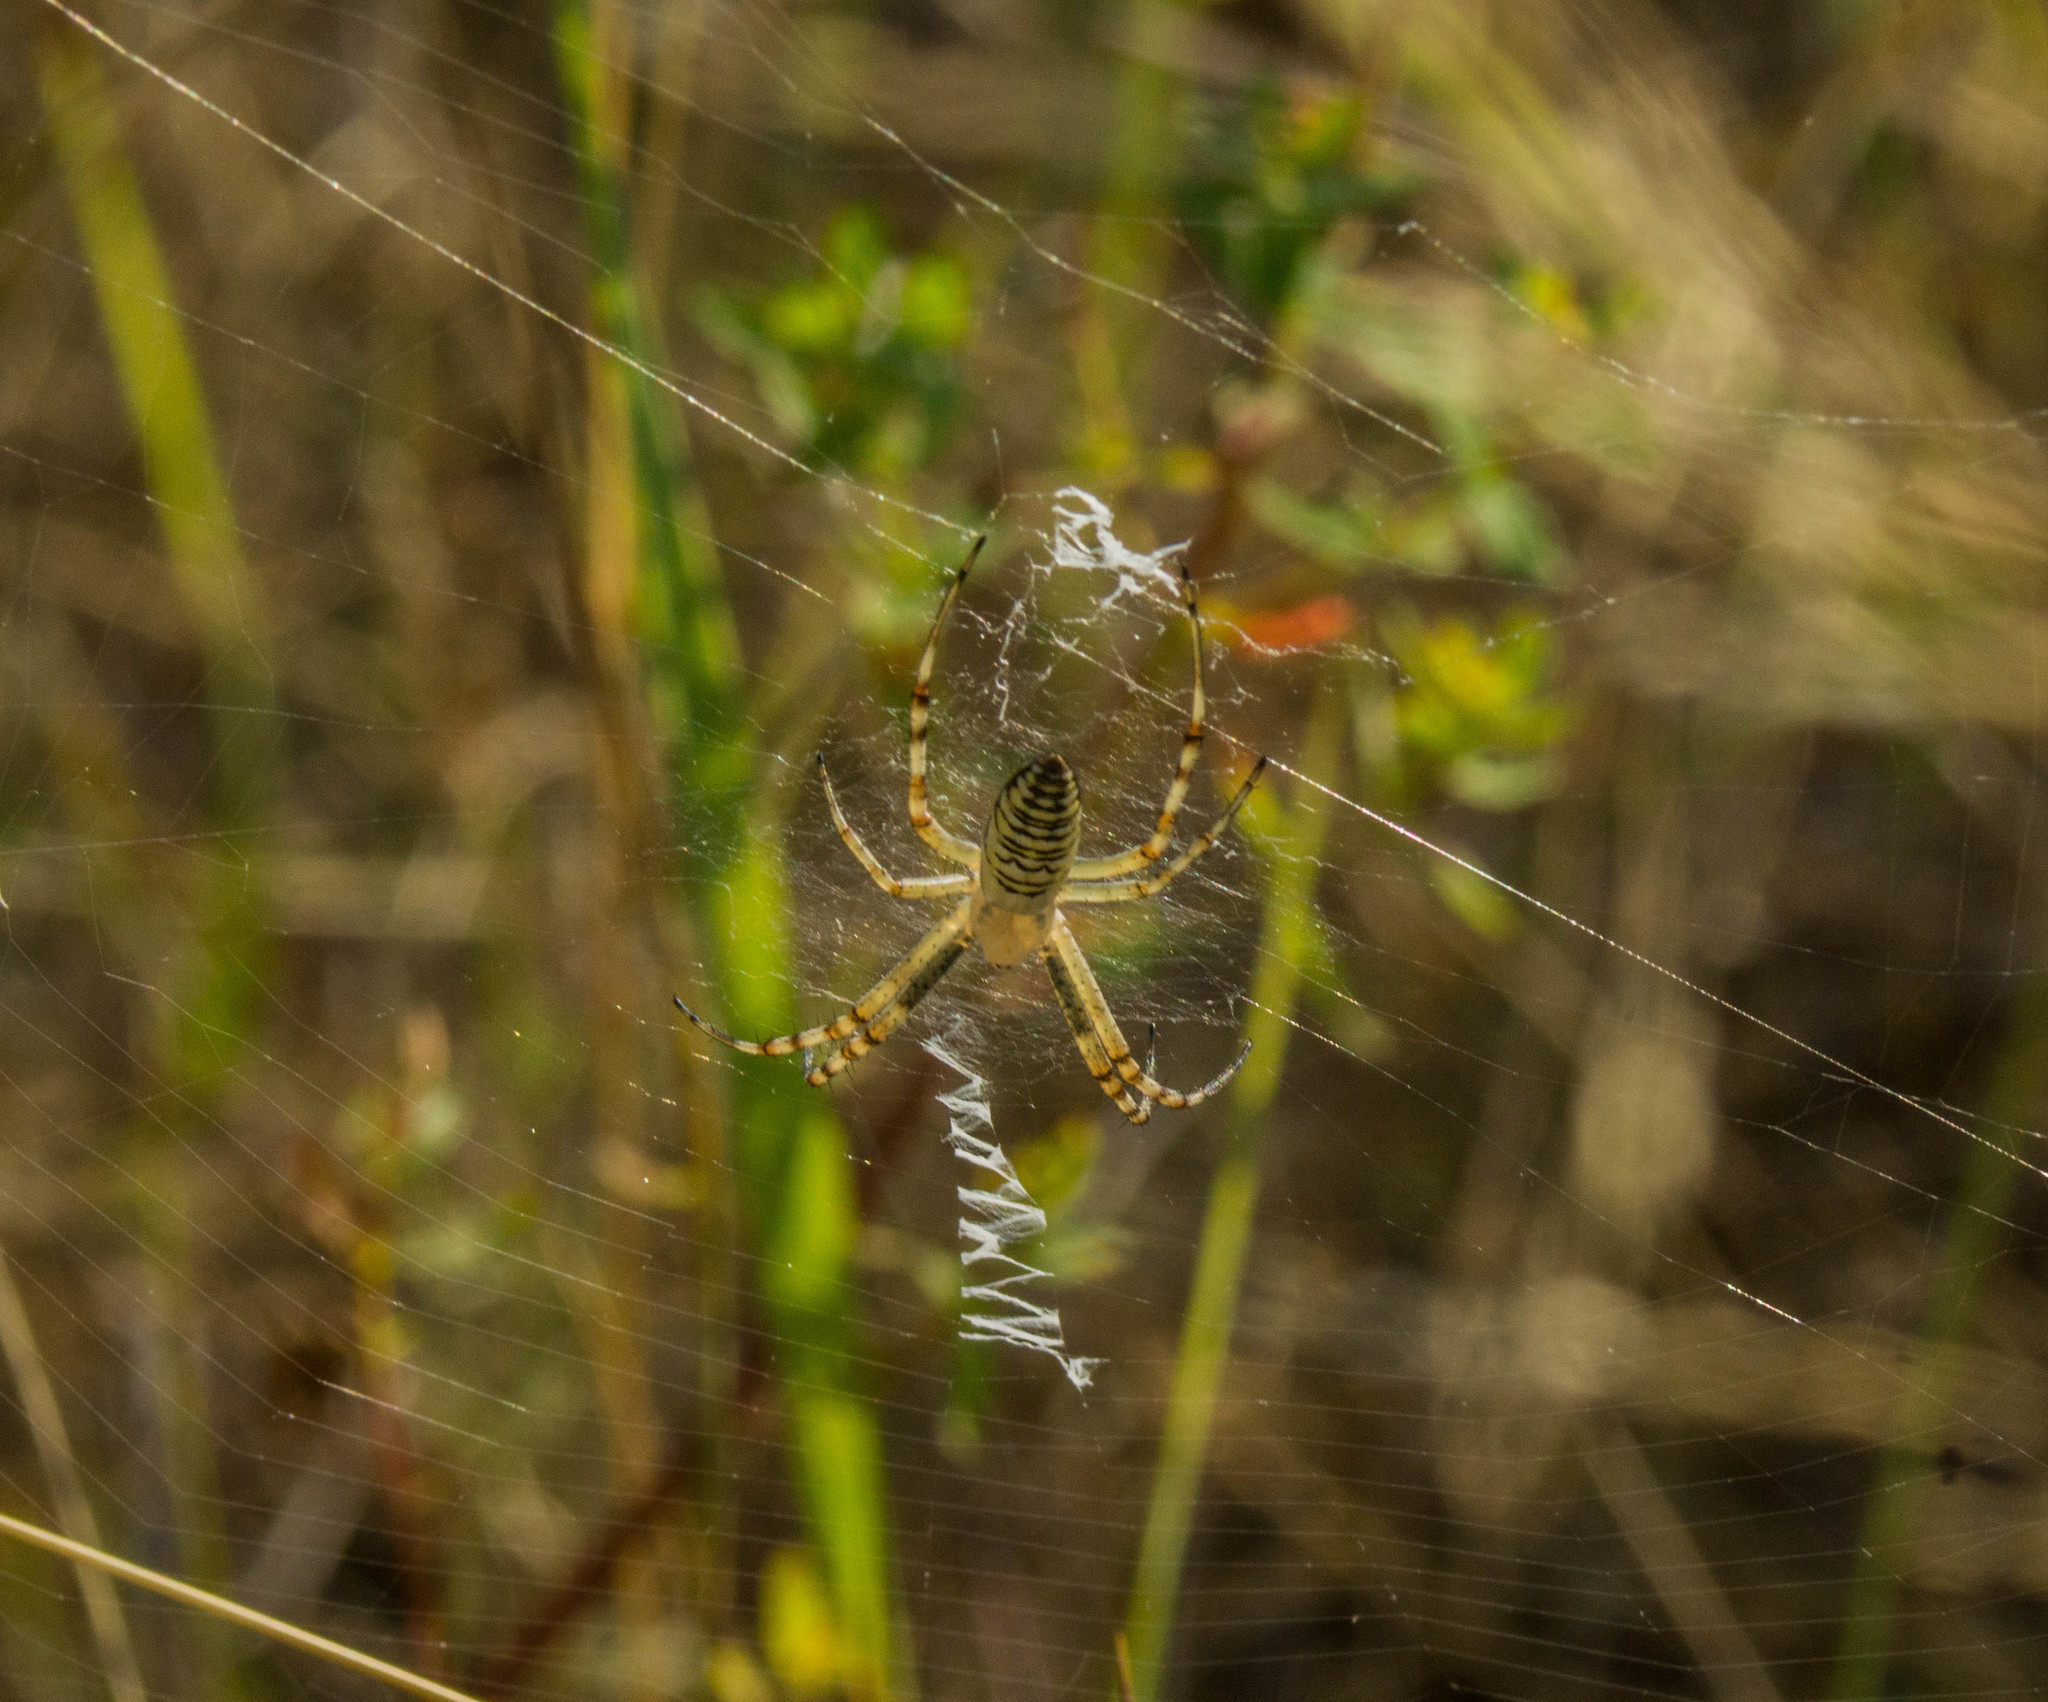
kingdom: Animalia
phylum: Arthropoda
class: Arachnida
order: Araneae
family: Araneidae
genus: Argiope
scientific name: Argiope bruennichi
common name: Wasp spider
